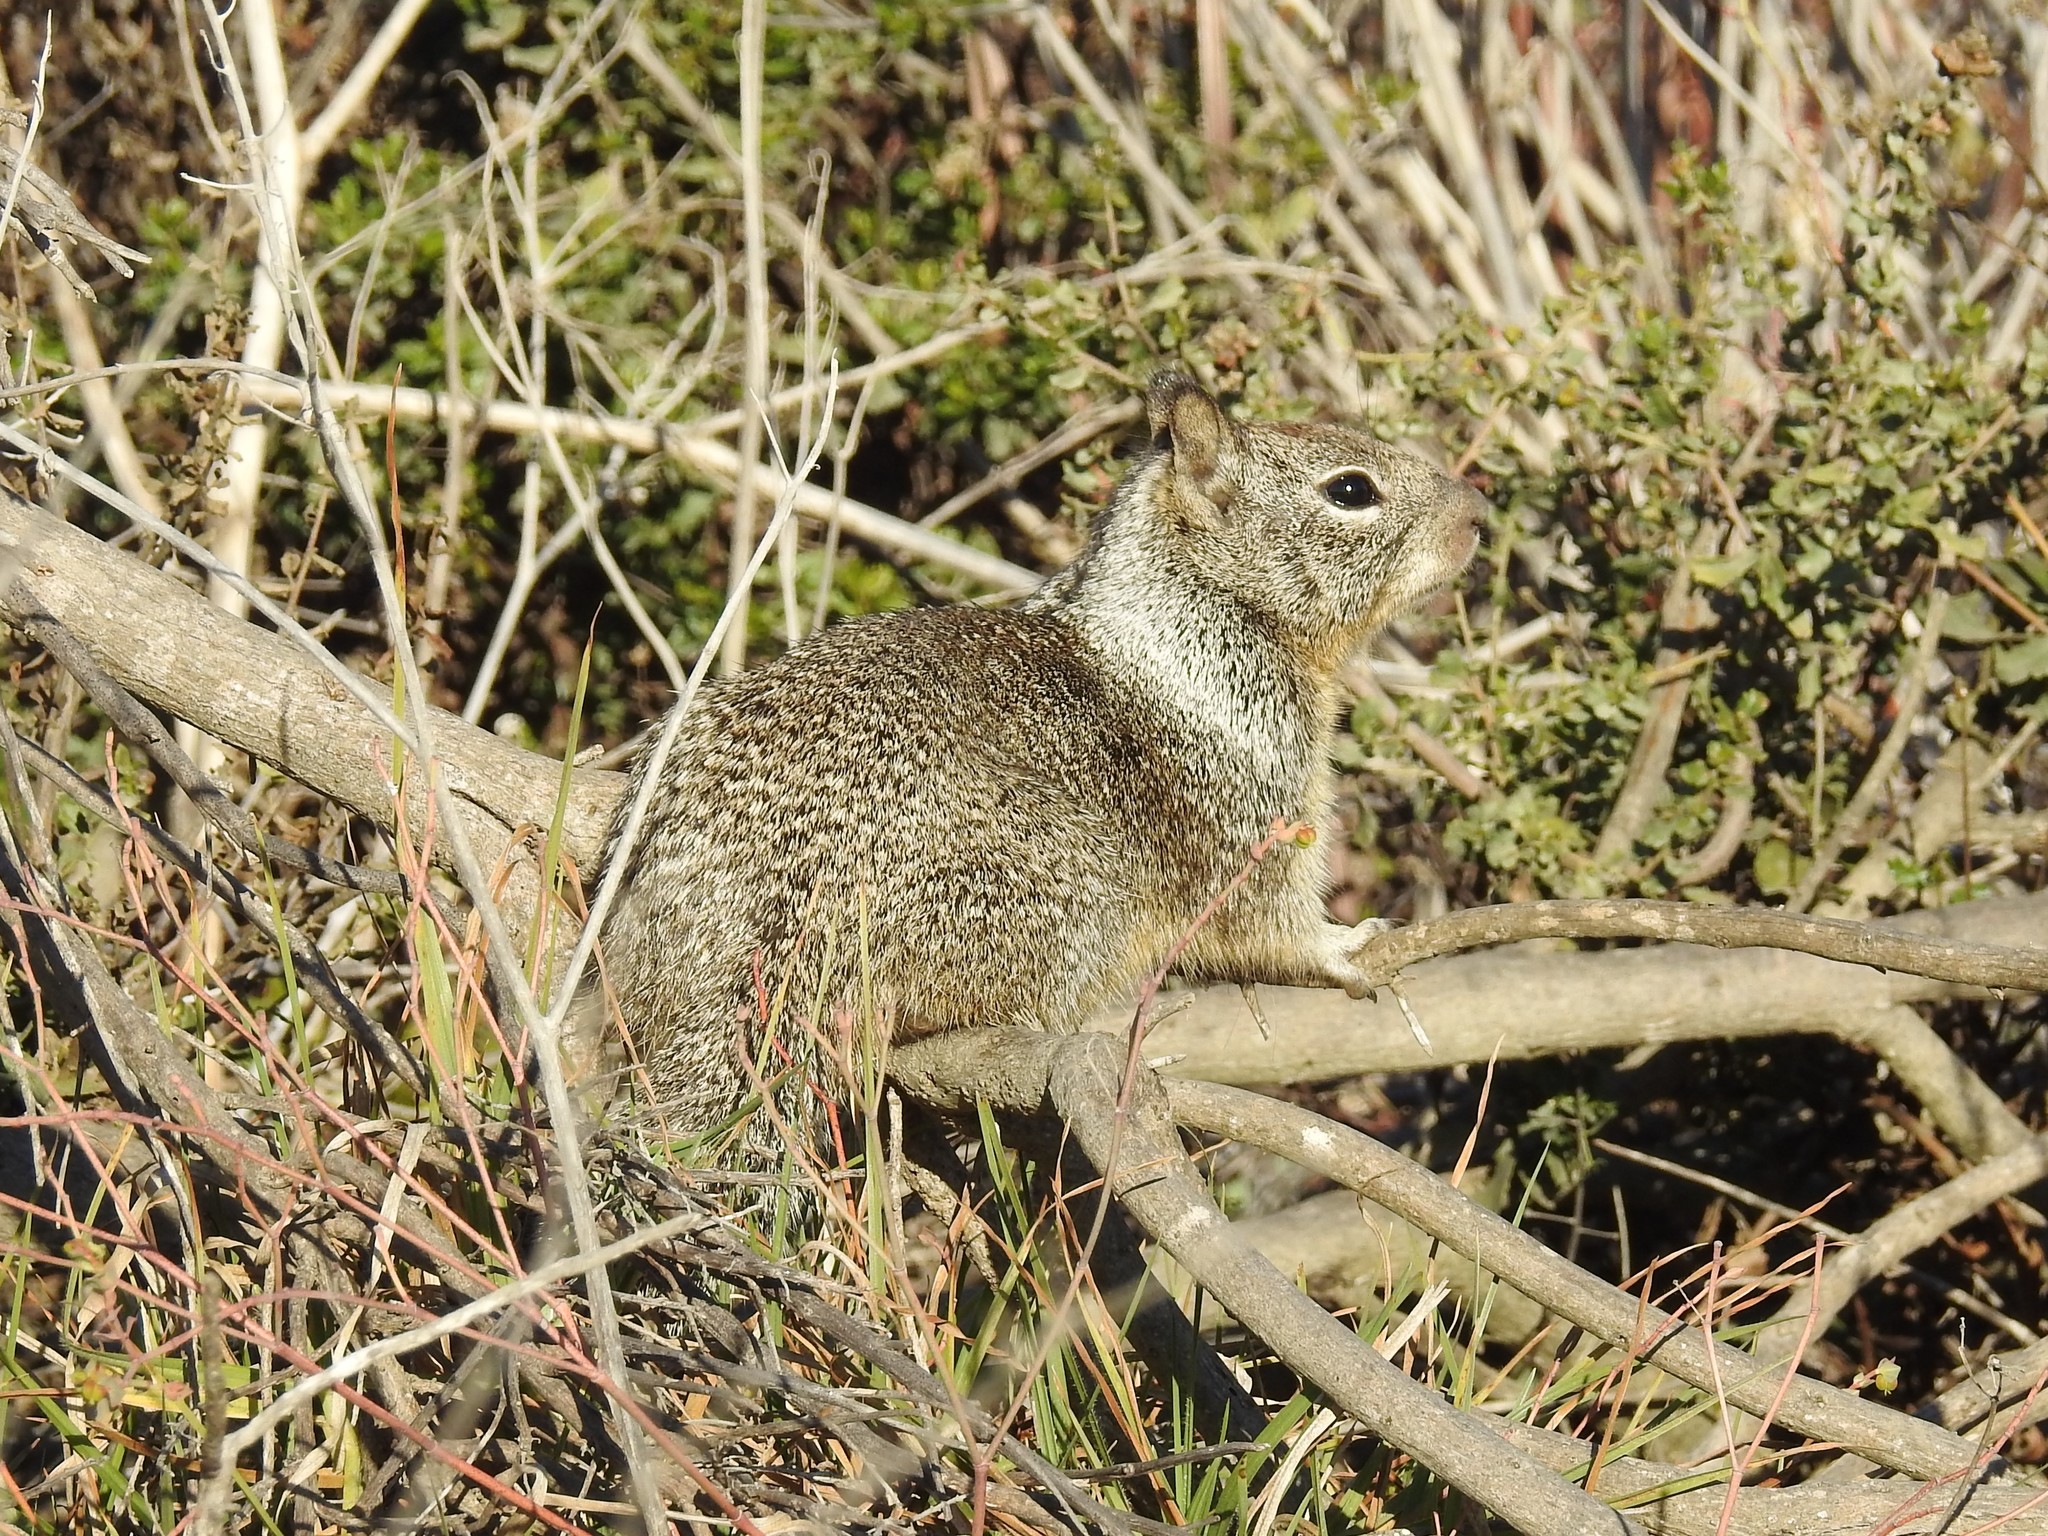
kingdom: Animalia
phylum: Chordata
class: Mammalia
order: Rodentia
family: Sciuridae
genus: Otospermophilus
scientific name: Otospermophilus beecheyi
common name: California ground squirrel
